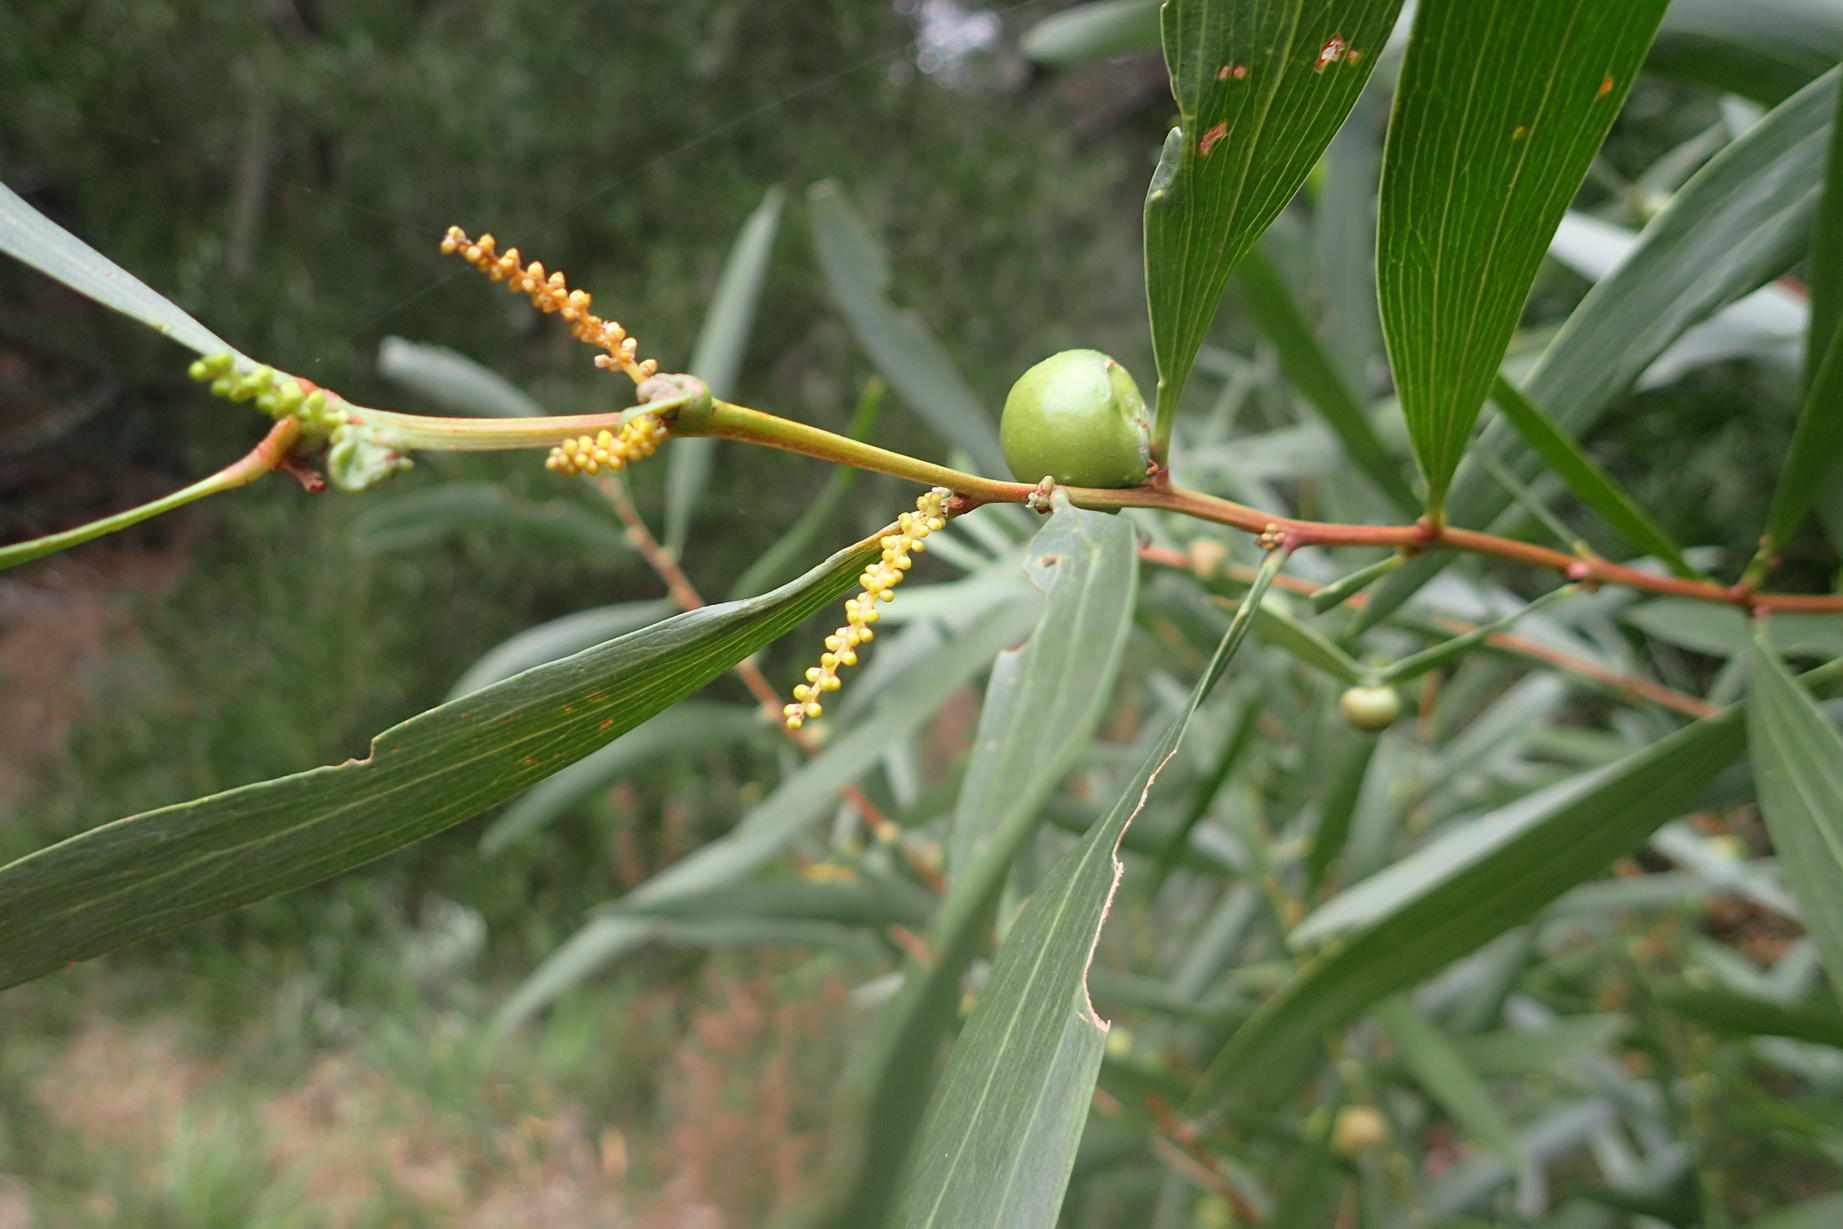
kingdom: Animalia
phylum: Arthropoda
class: Insecta
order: Hymenoptera
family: Pteromalidae
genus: Trichilogaster
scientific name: Trichilogaster acaciaelongifoliae
